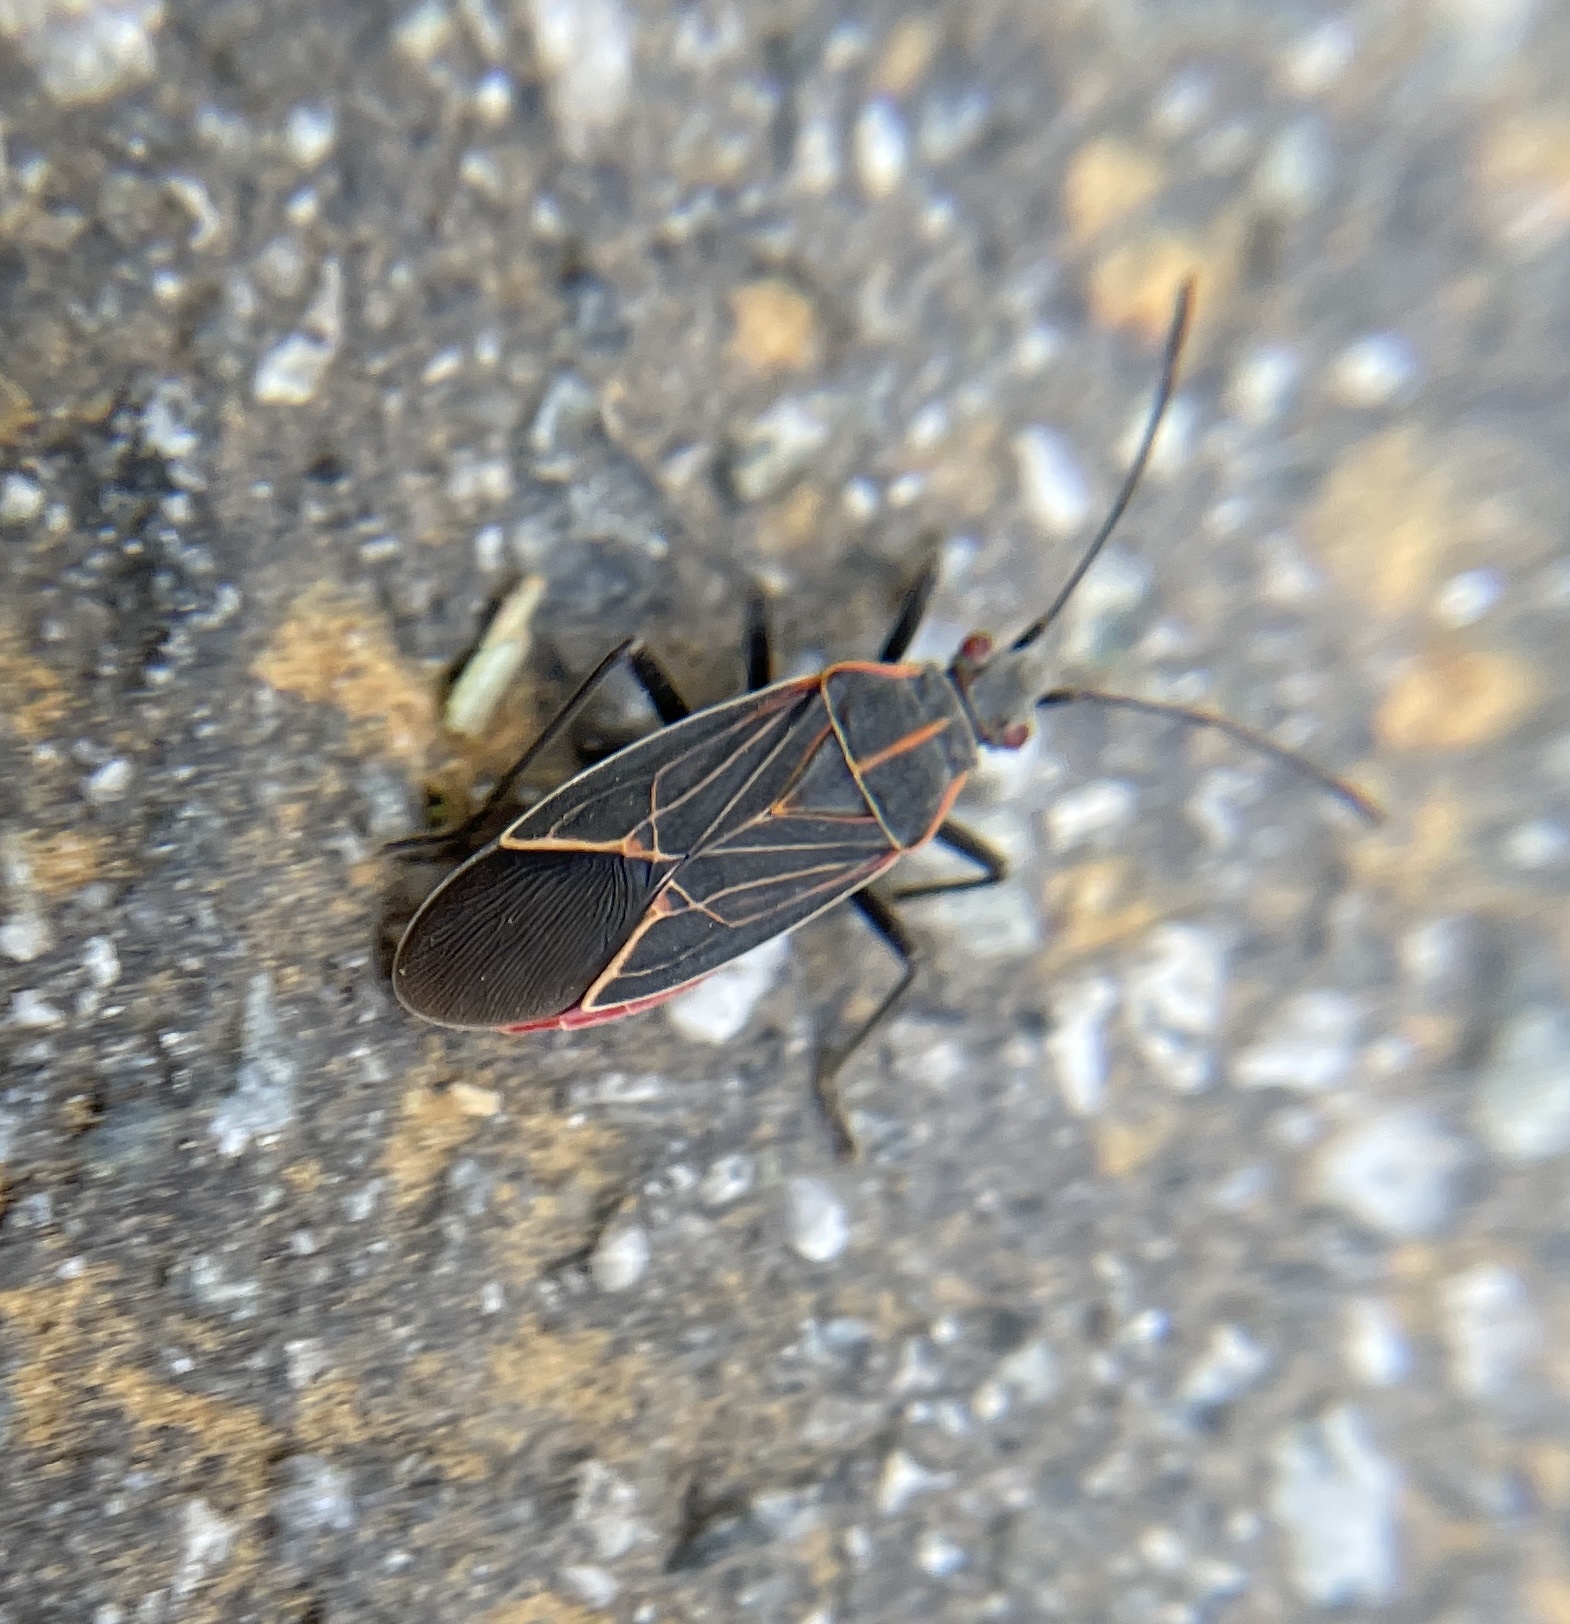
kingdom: Animalia
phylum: Arthropoda
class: Insecta
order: Hemiptera
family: Rhopalidae
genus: Boisea
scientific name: Boisea rubrolineata
